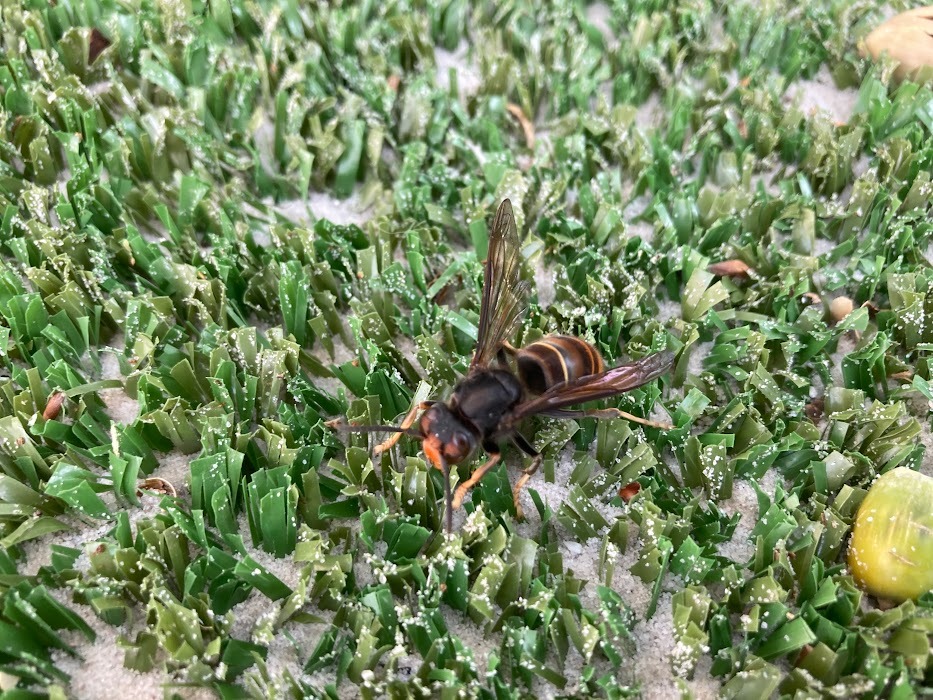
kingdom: Animalia
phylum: Arthropoda
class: Insecta
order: Hymenoptera
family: Vespidae
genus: Vespa
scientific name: Vespa velutina
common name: Asian hornet
